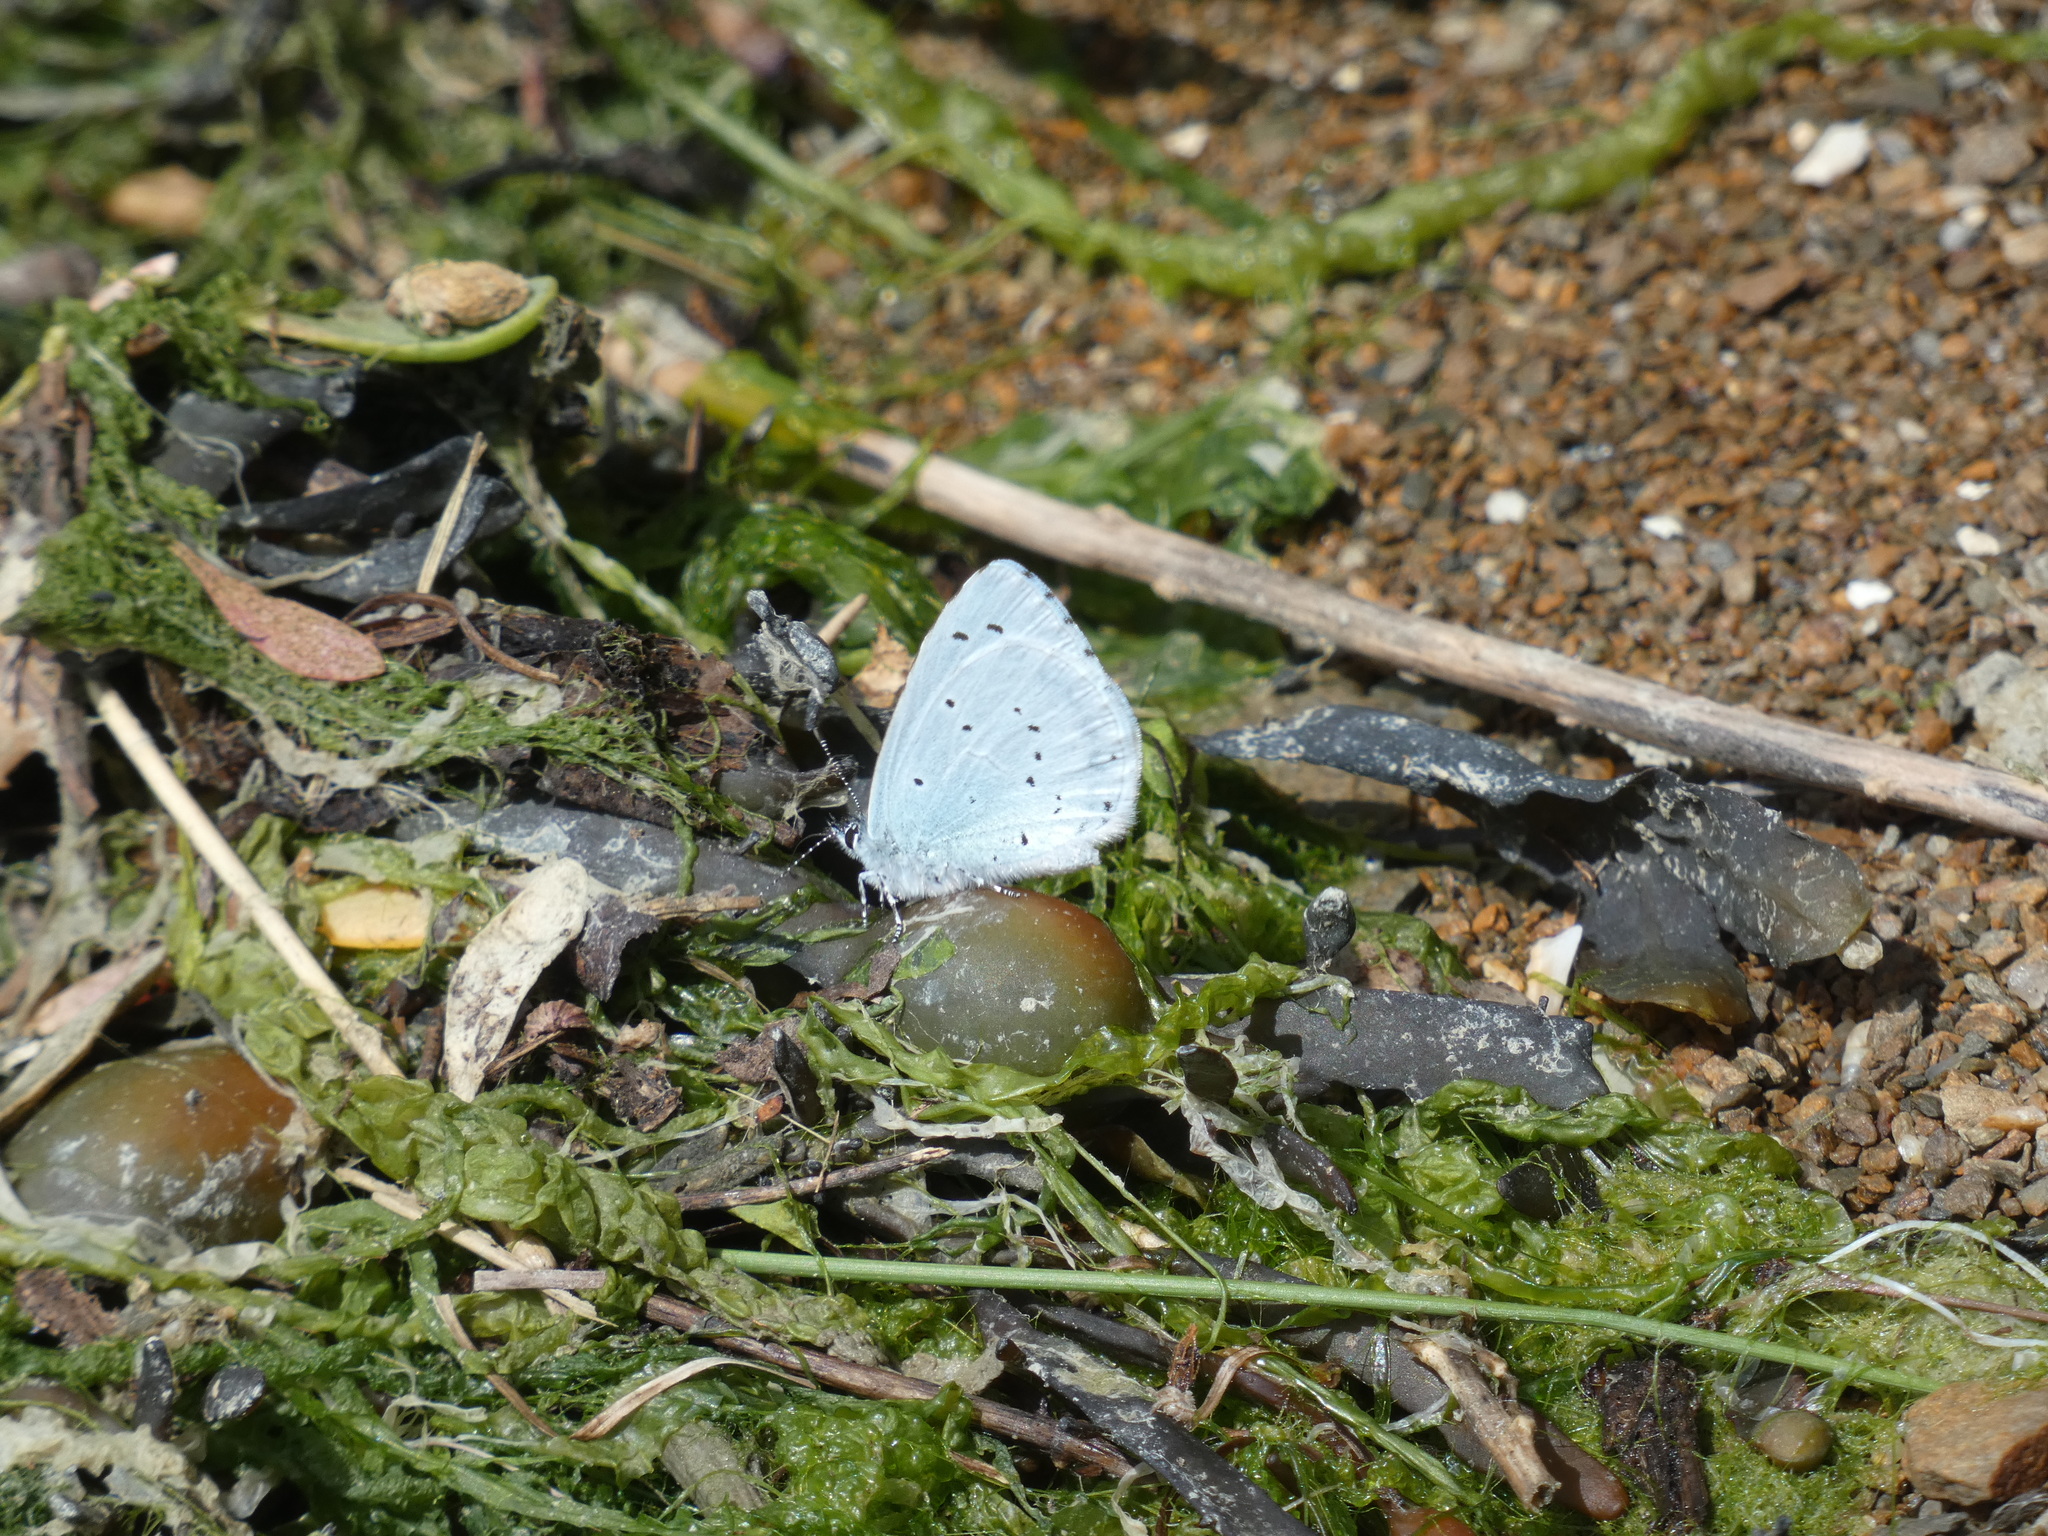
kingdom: Animalia
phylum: Arthropoda
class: Insecta
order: Lepidoptera
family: Lycaenidae
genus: Celastrina
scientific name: Celastrina argiolus
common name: Holly blue
